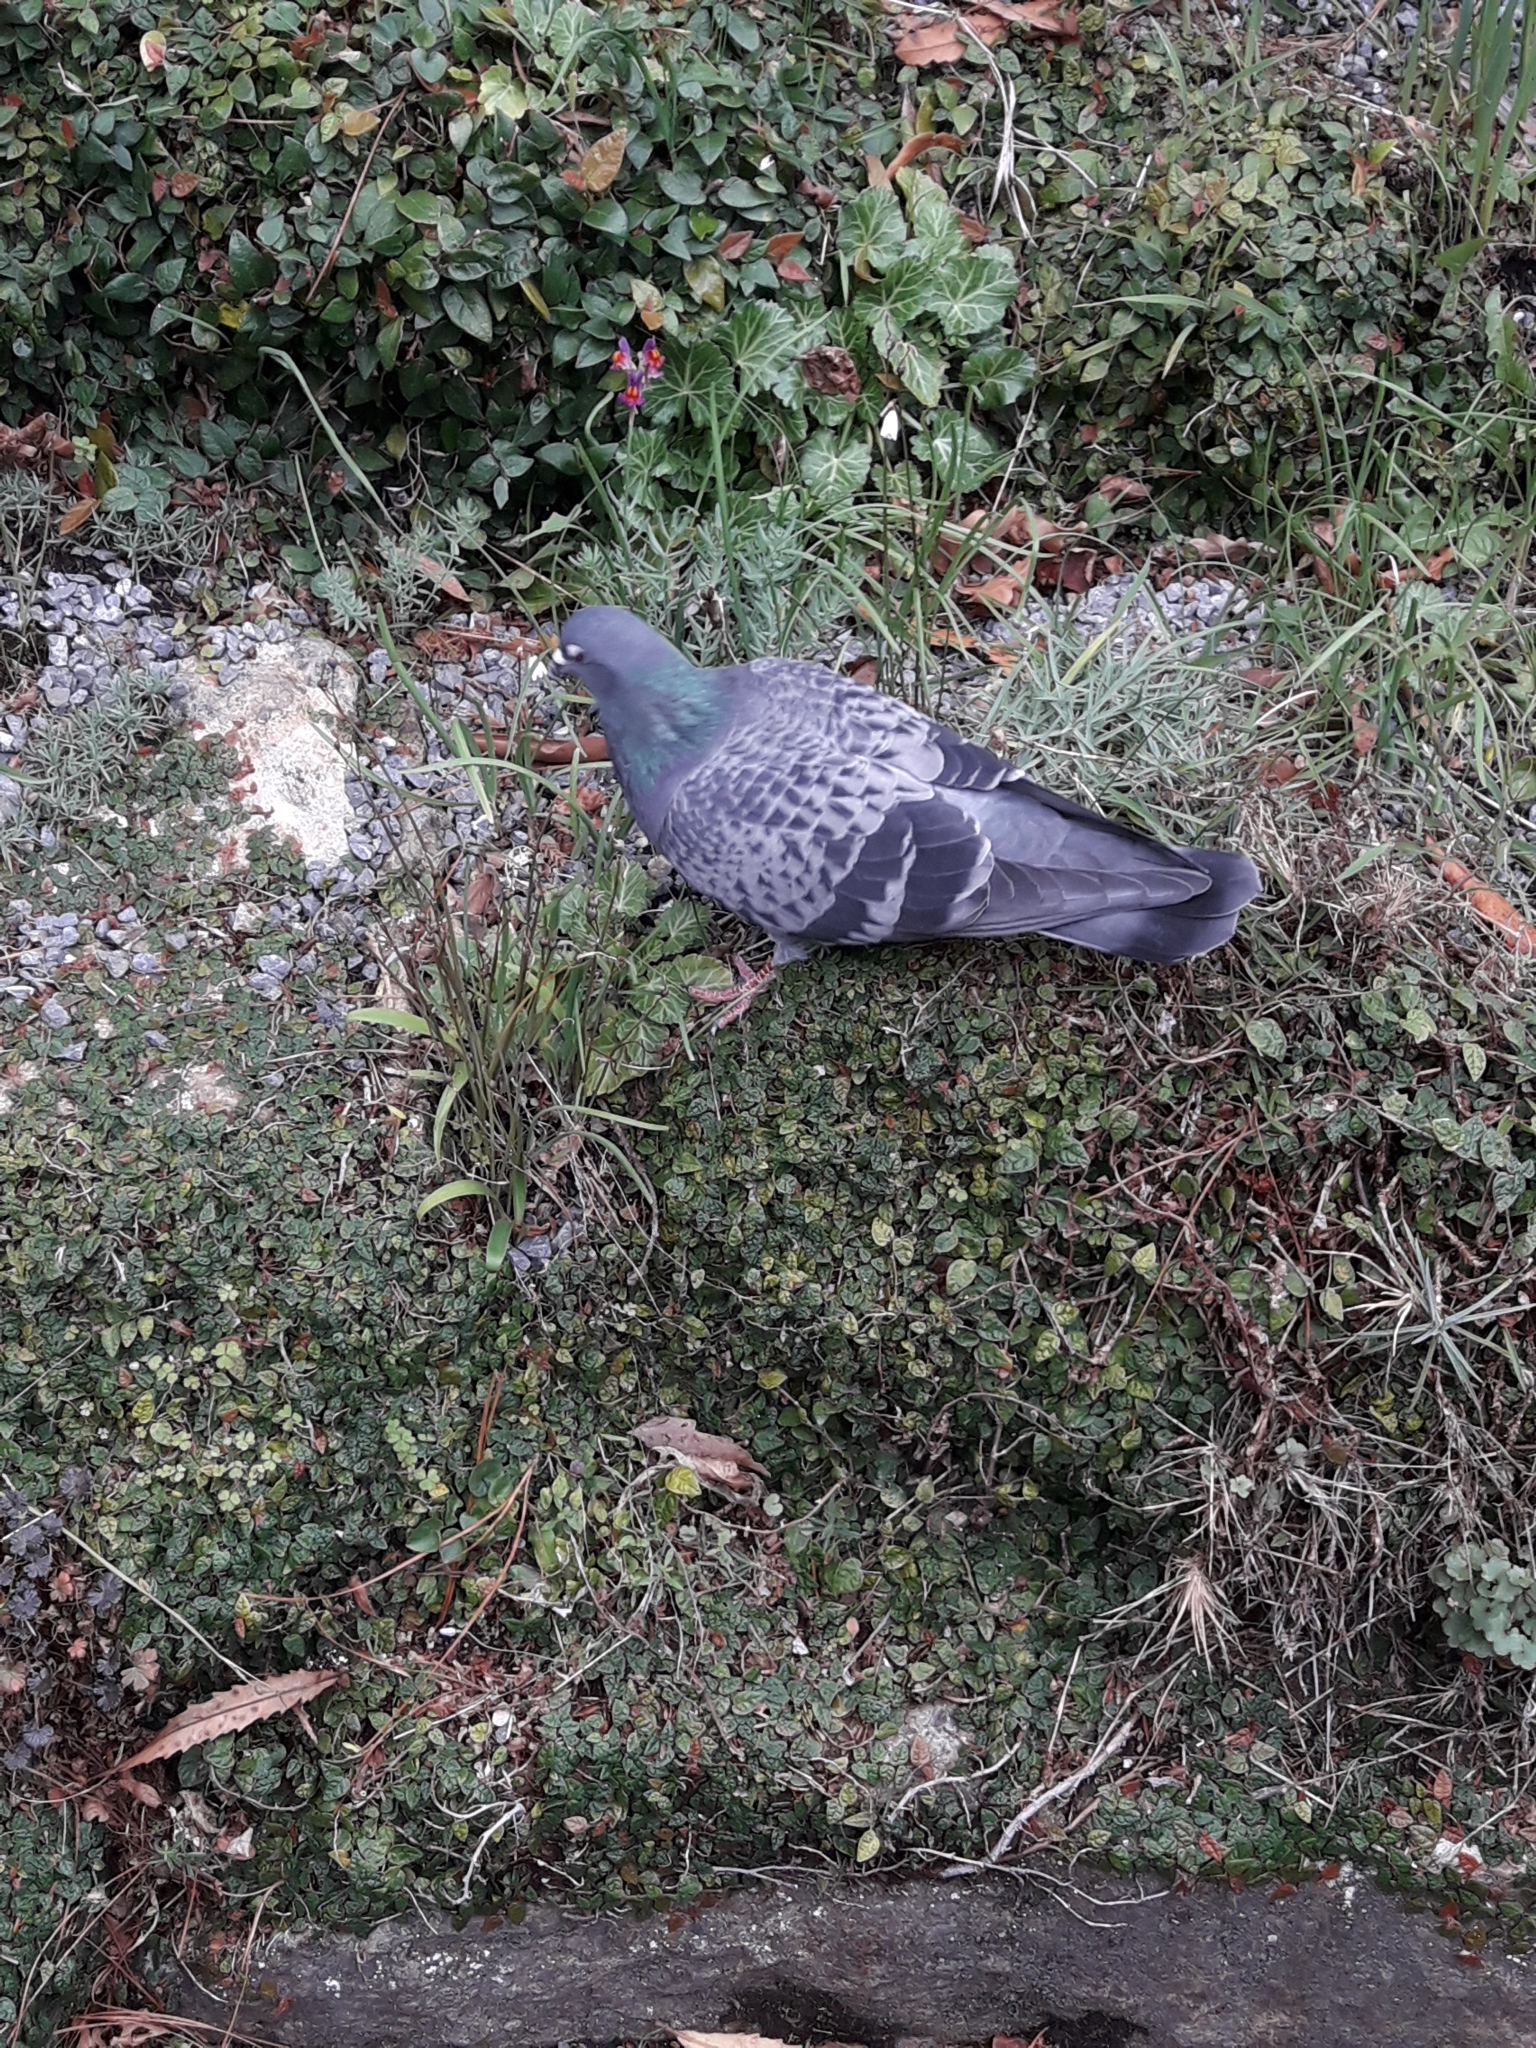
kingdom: Animalia
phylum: Chordata
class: Aves
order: Columbiformes
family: Columbidae
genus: Columba
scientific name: Columba livia
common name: Rock pigeon
